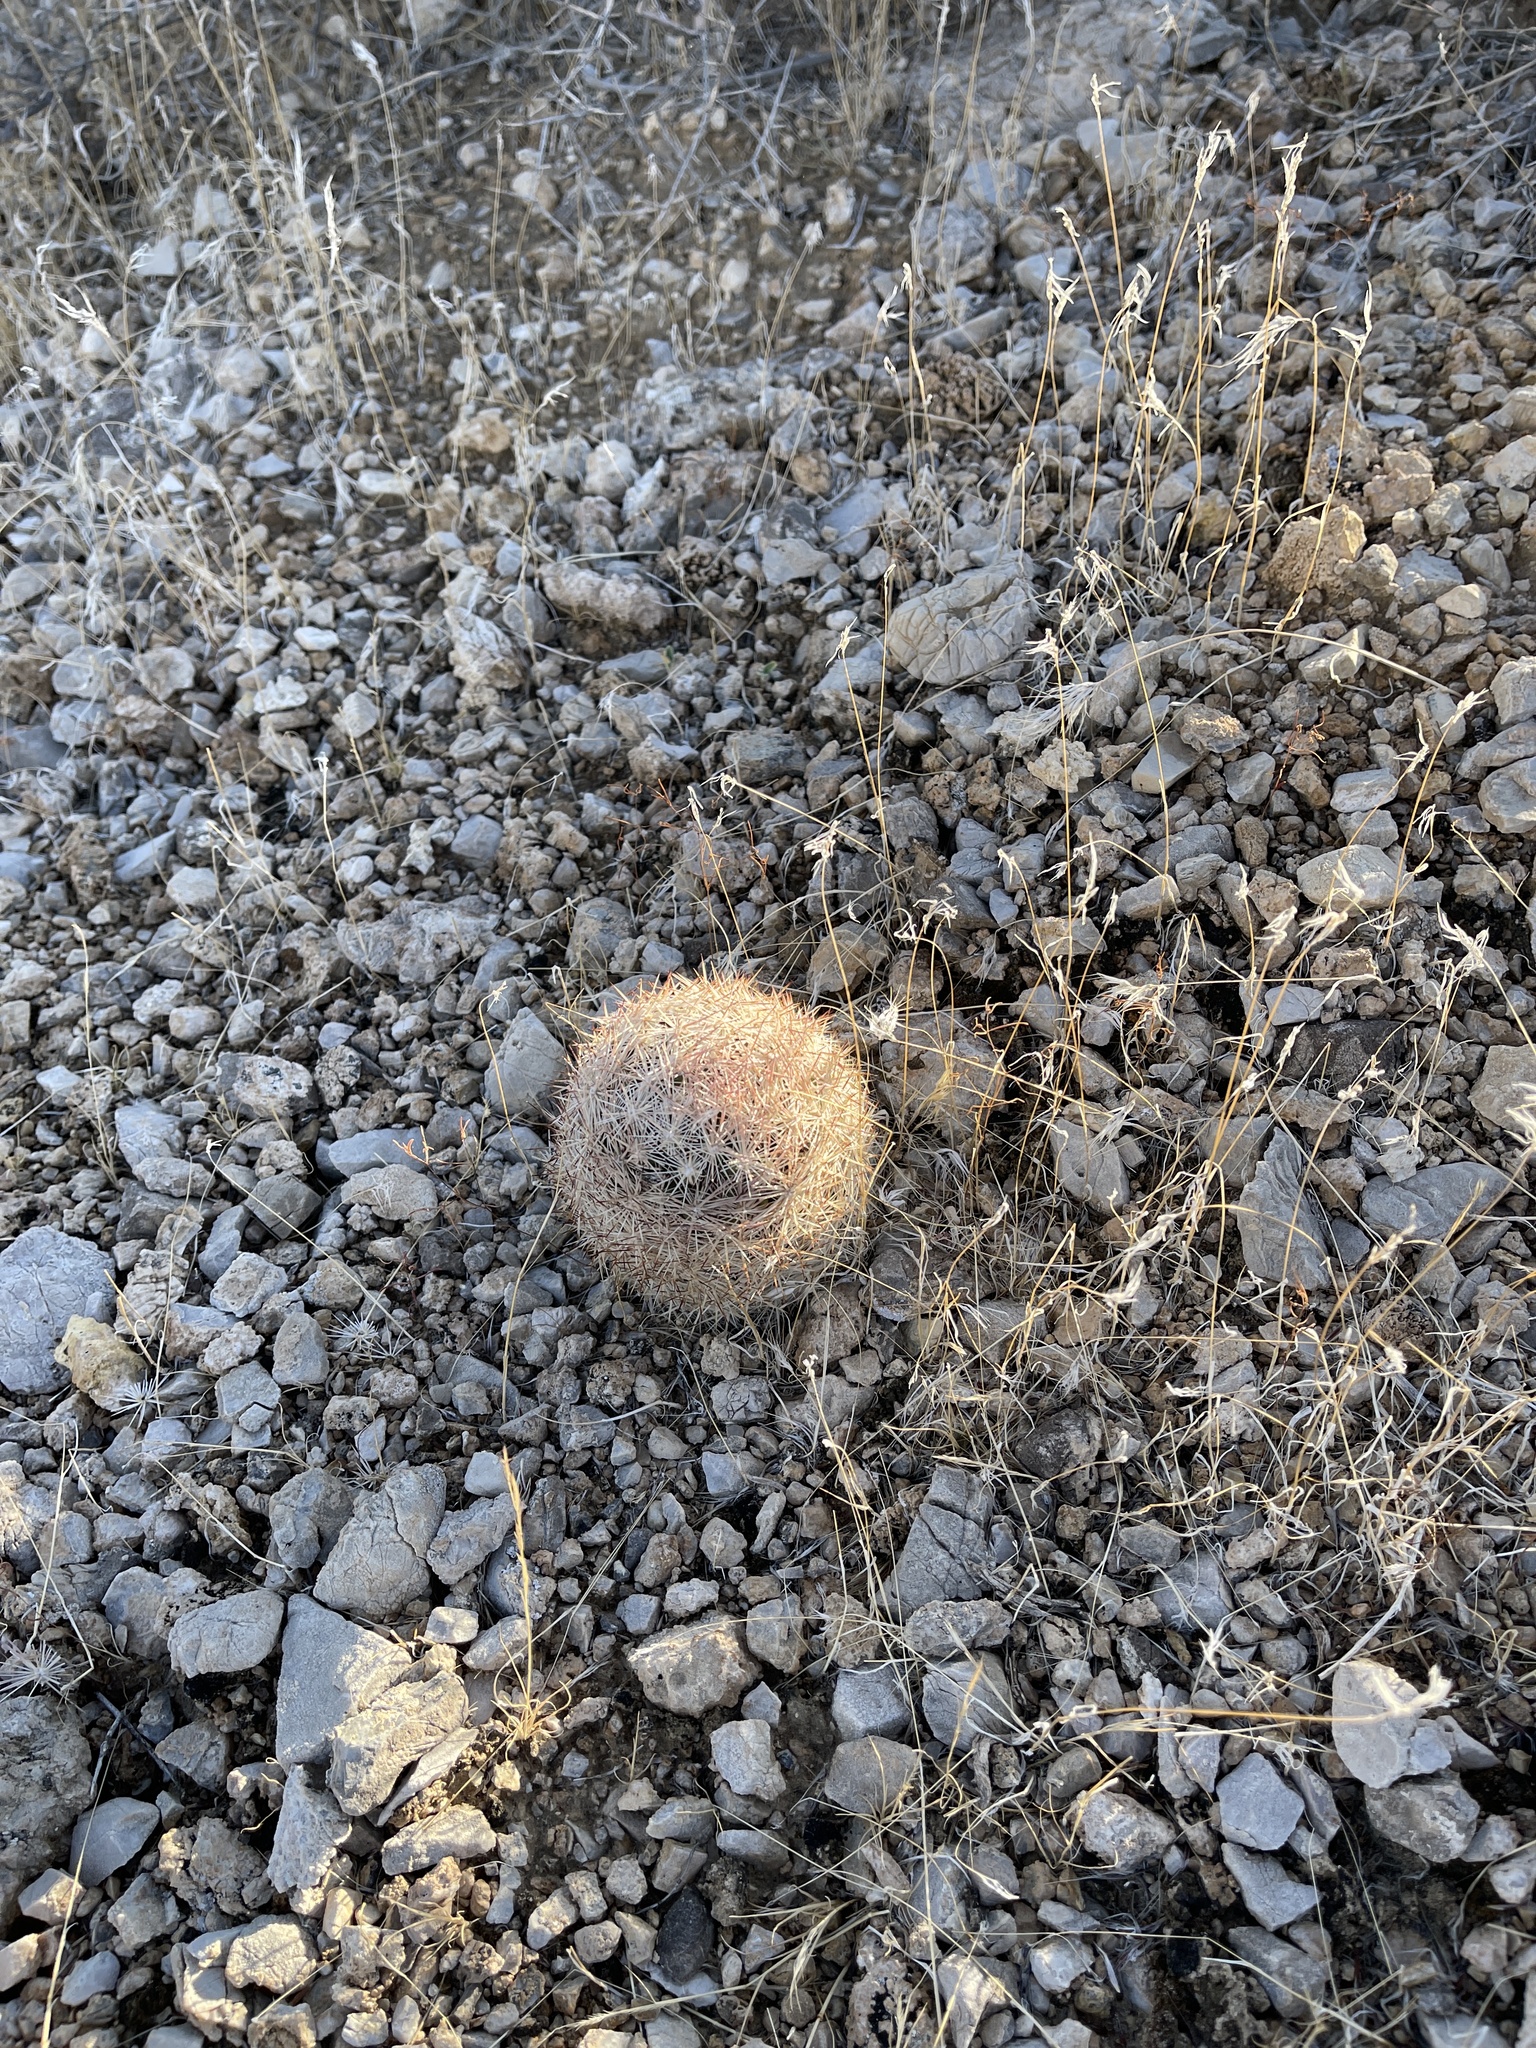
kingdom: Plantae
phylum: Tracheophyta
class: Magnoliopsida
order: Caryophyllales
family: Cactaceae
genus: Pelecyphora
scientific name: Pelecyphora dasyacantha
